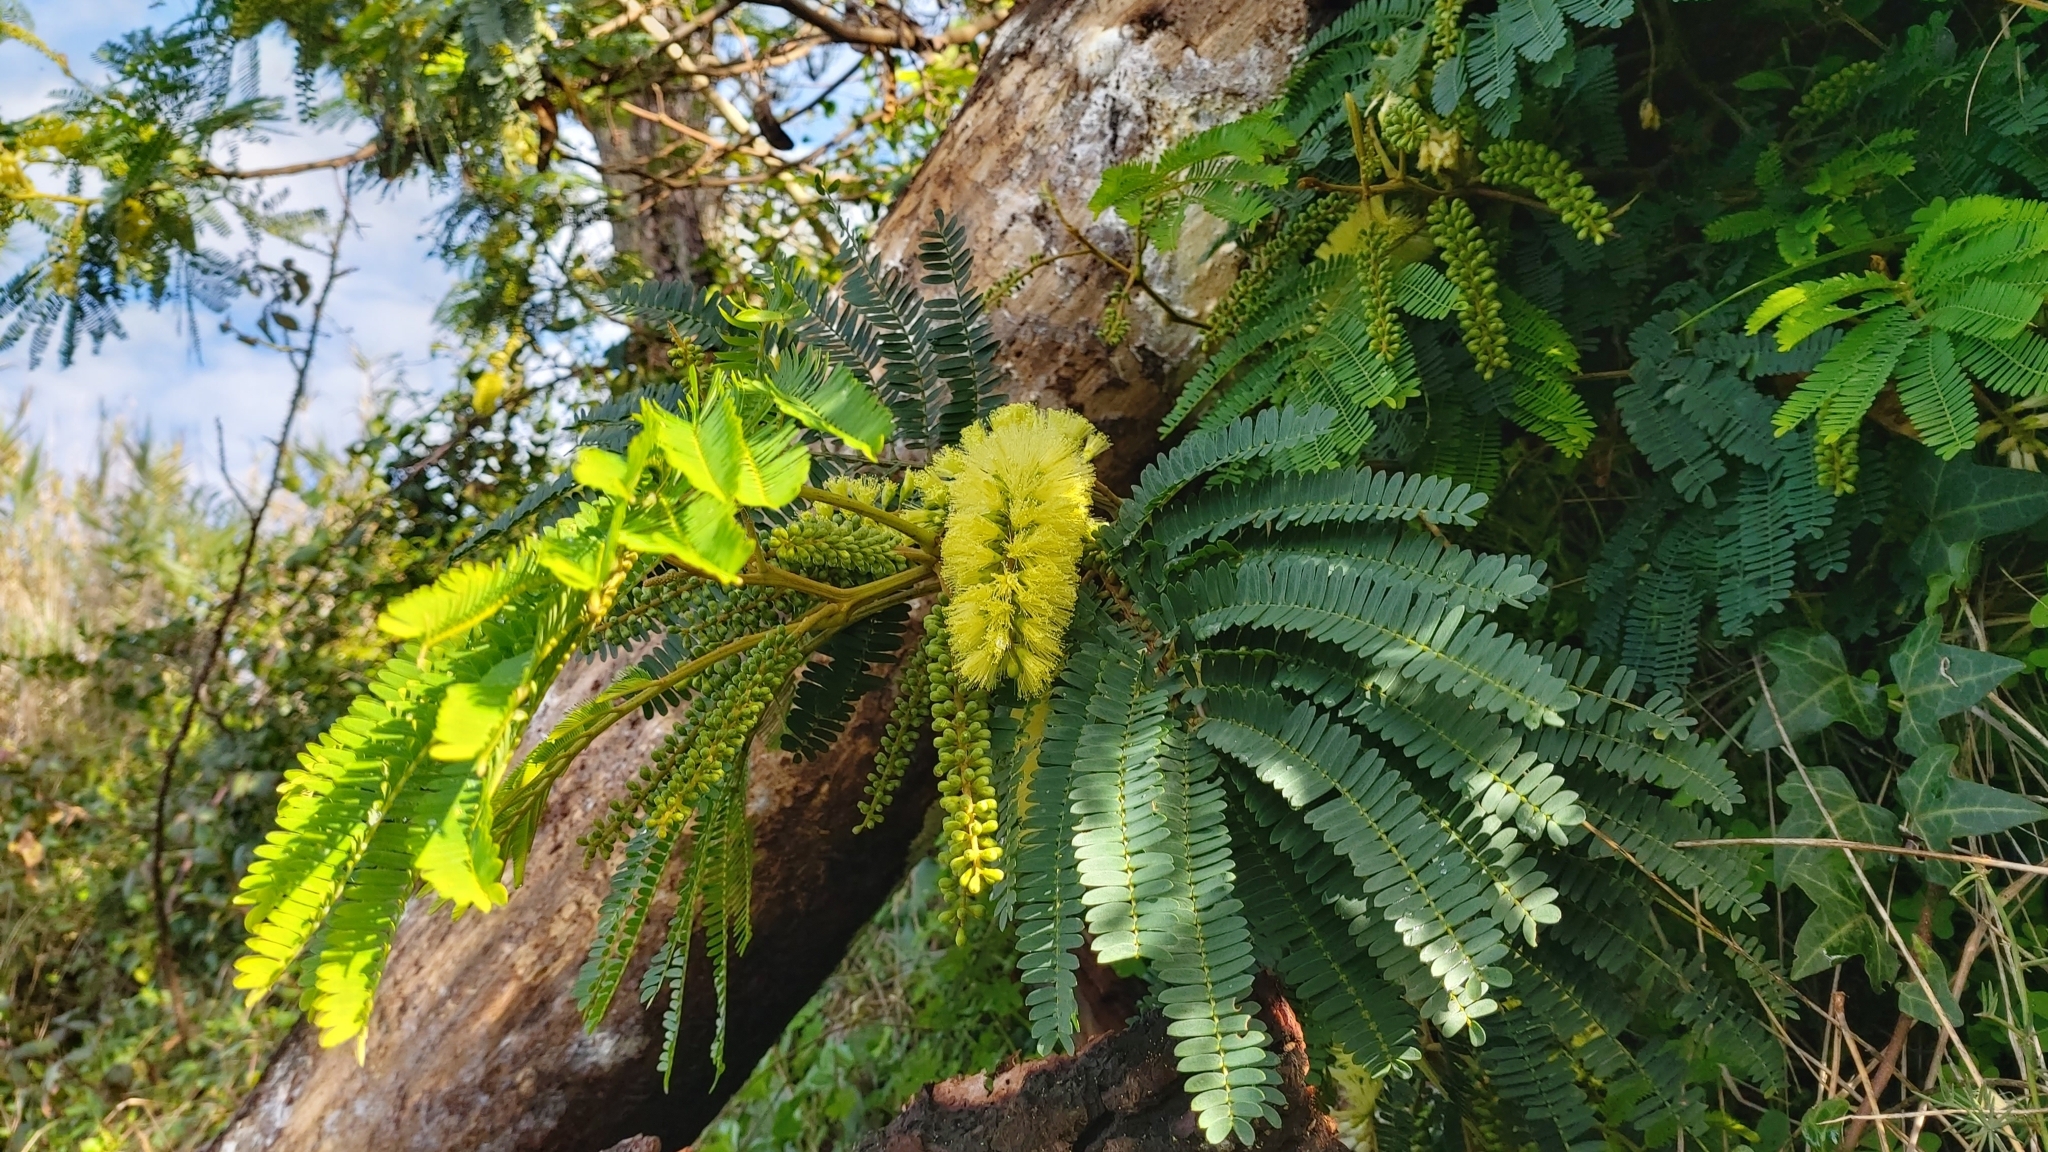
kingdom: Plantae
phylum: Tracheophyta
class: Magnoliopsida
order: Fabales
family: Fabaceae
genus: Paraserianthes
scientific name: Paraserianthes lophantha
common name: Plume albizia
